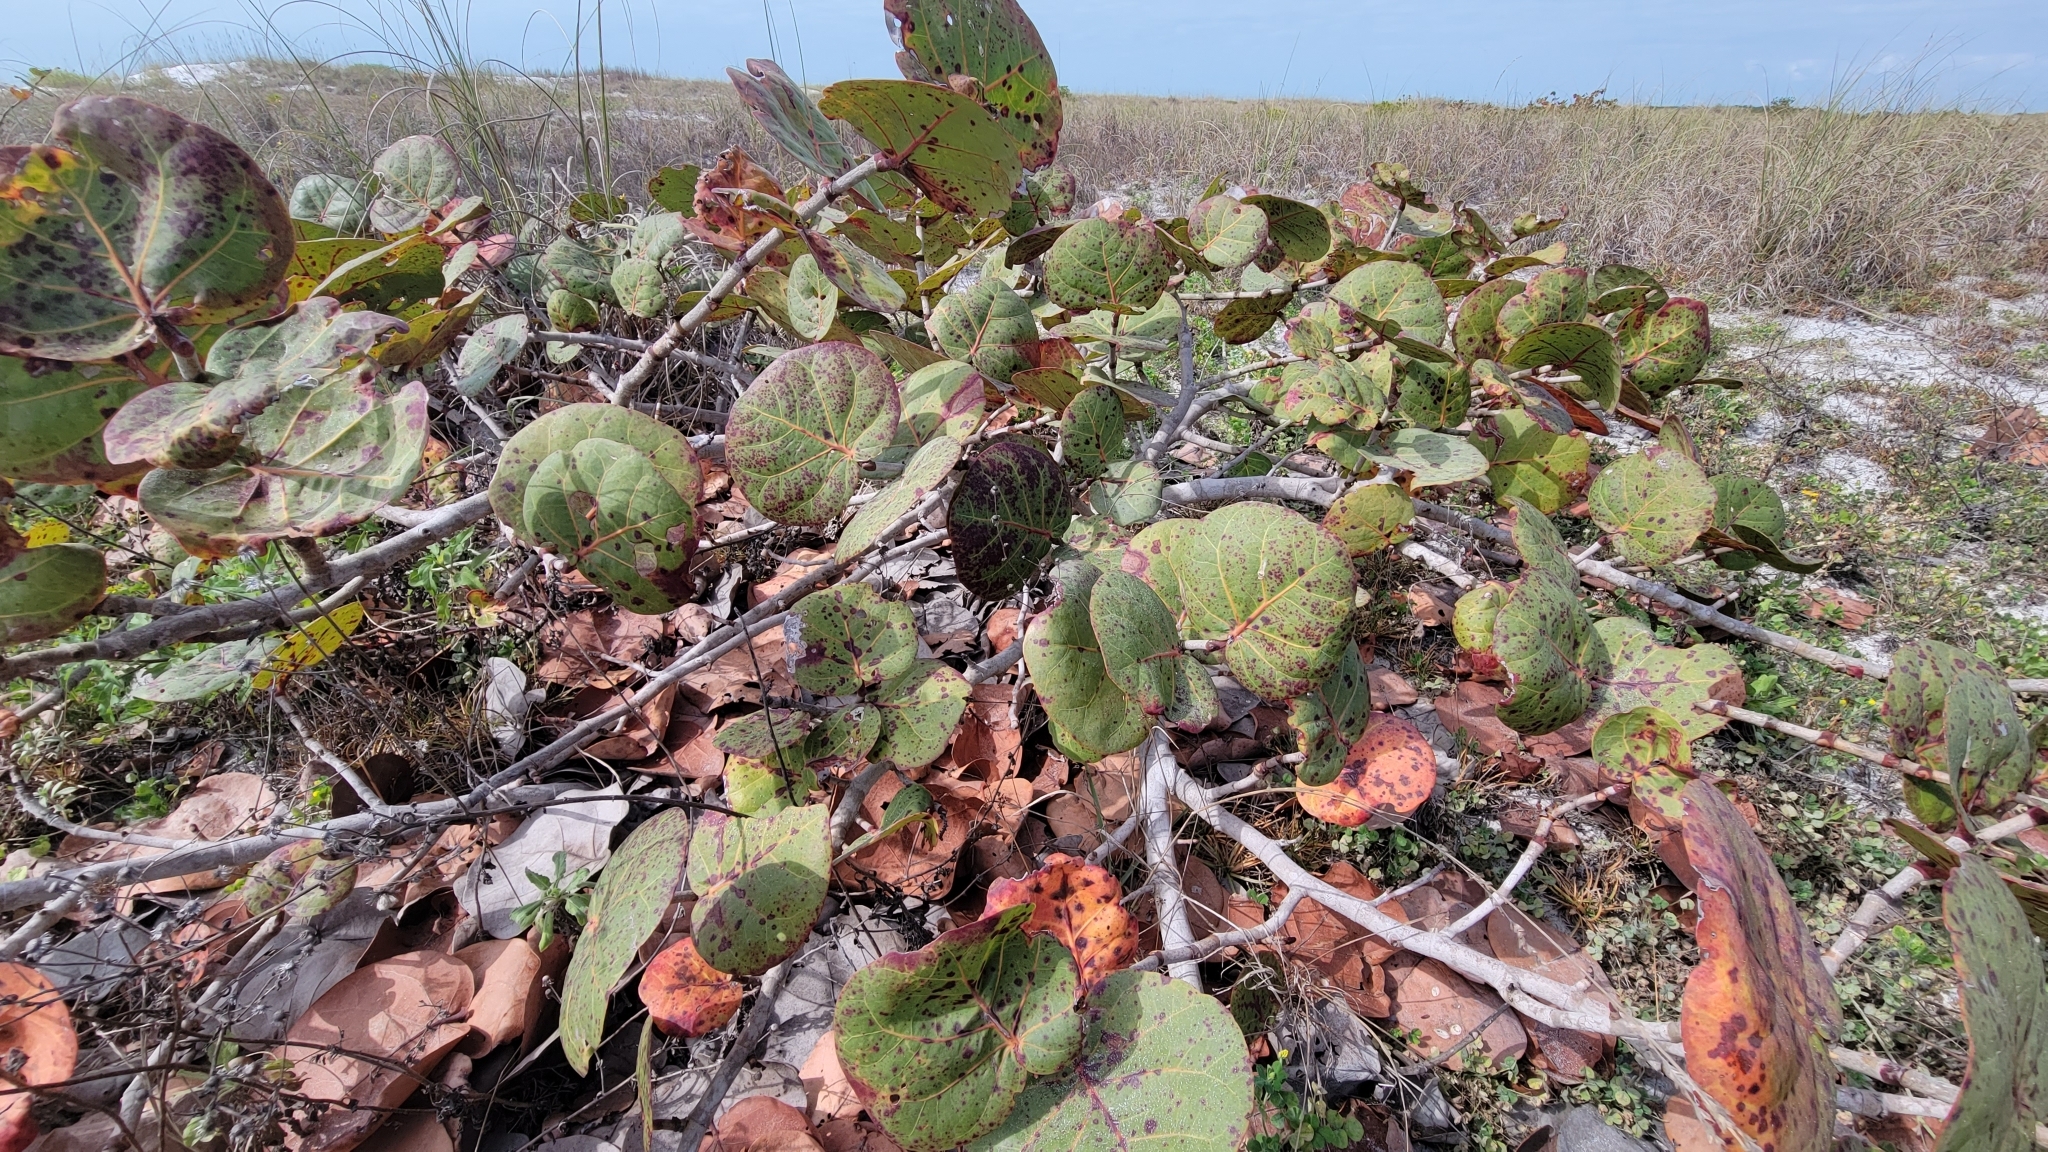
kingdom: Plantae
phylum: Tracheophyta
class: Magnoliopsida
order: Caryophyllales
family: Polygonaceae
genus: Coccoloba
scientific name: Coccoloba uvifera
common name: Seagrape
